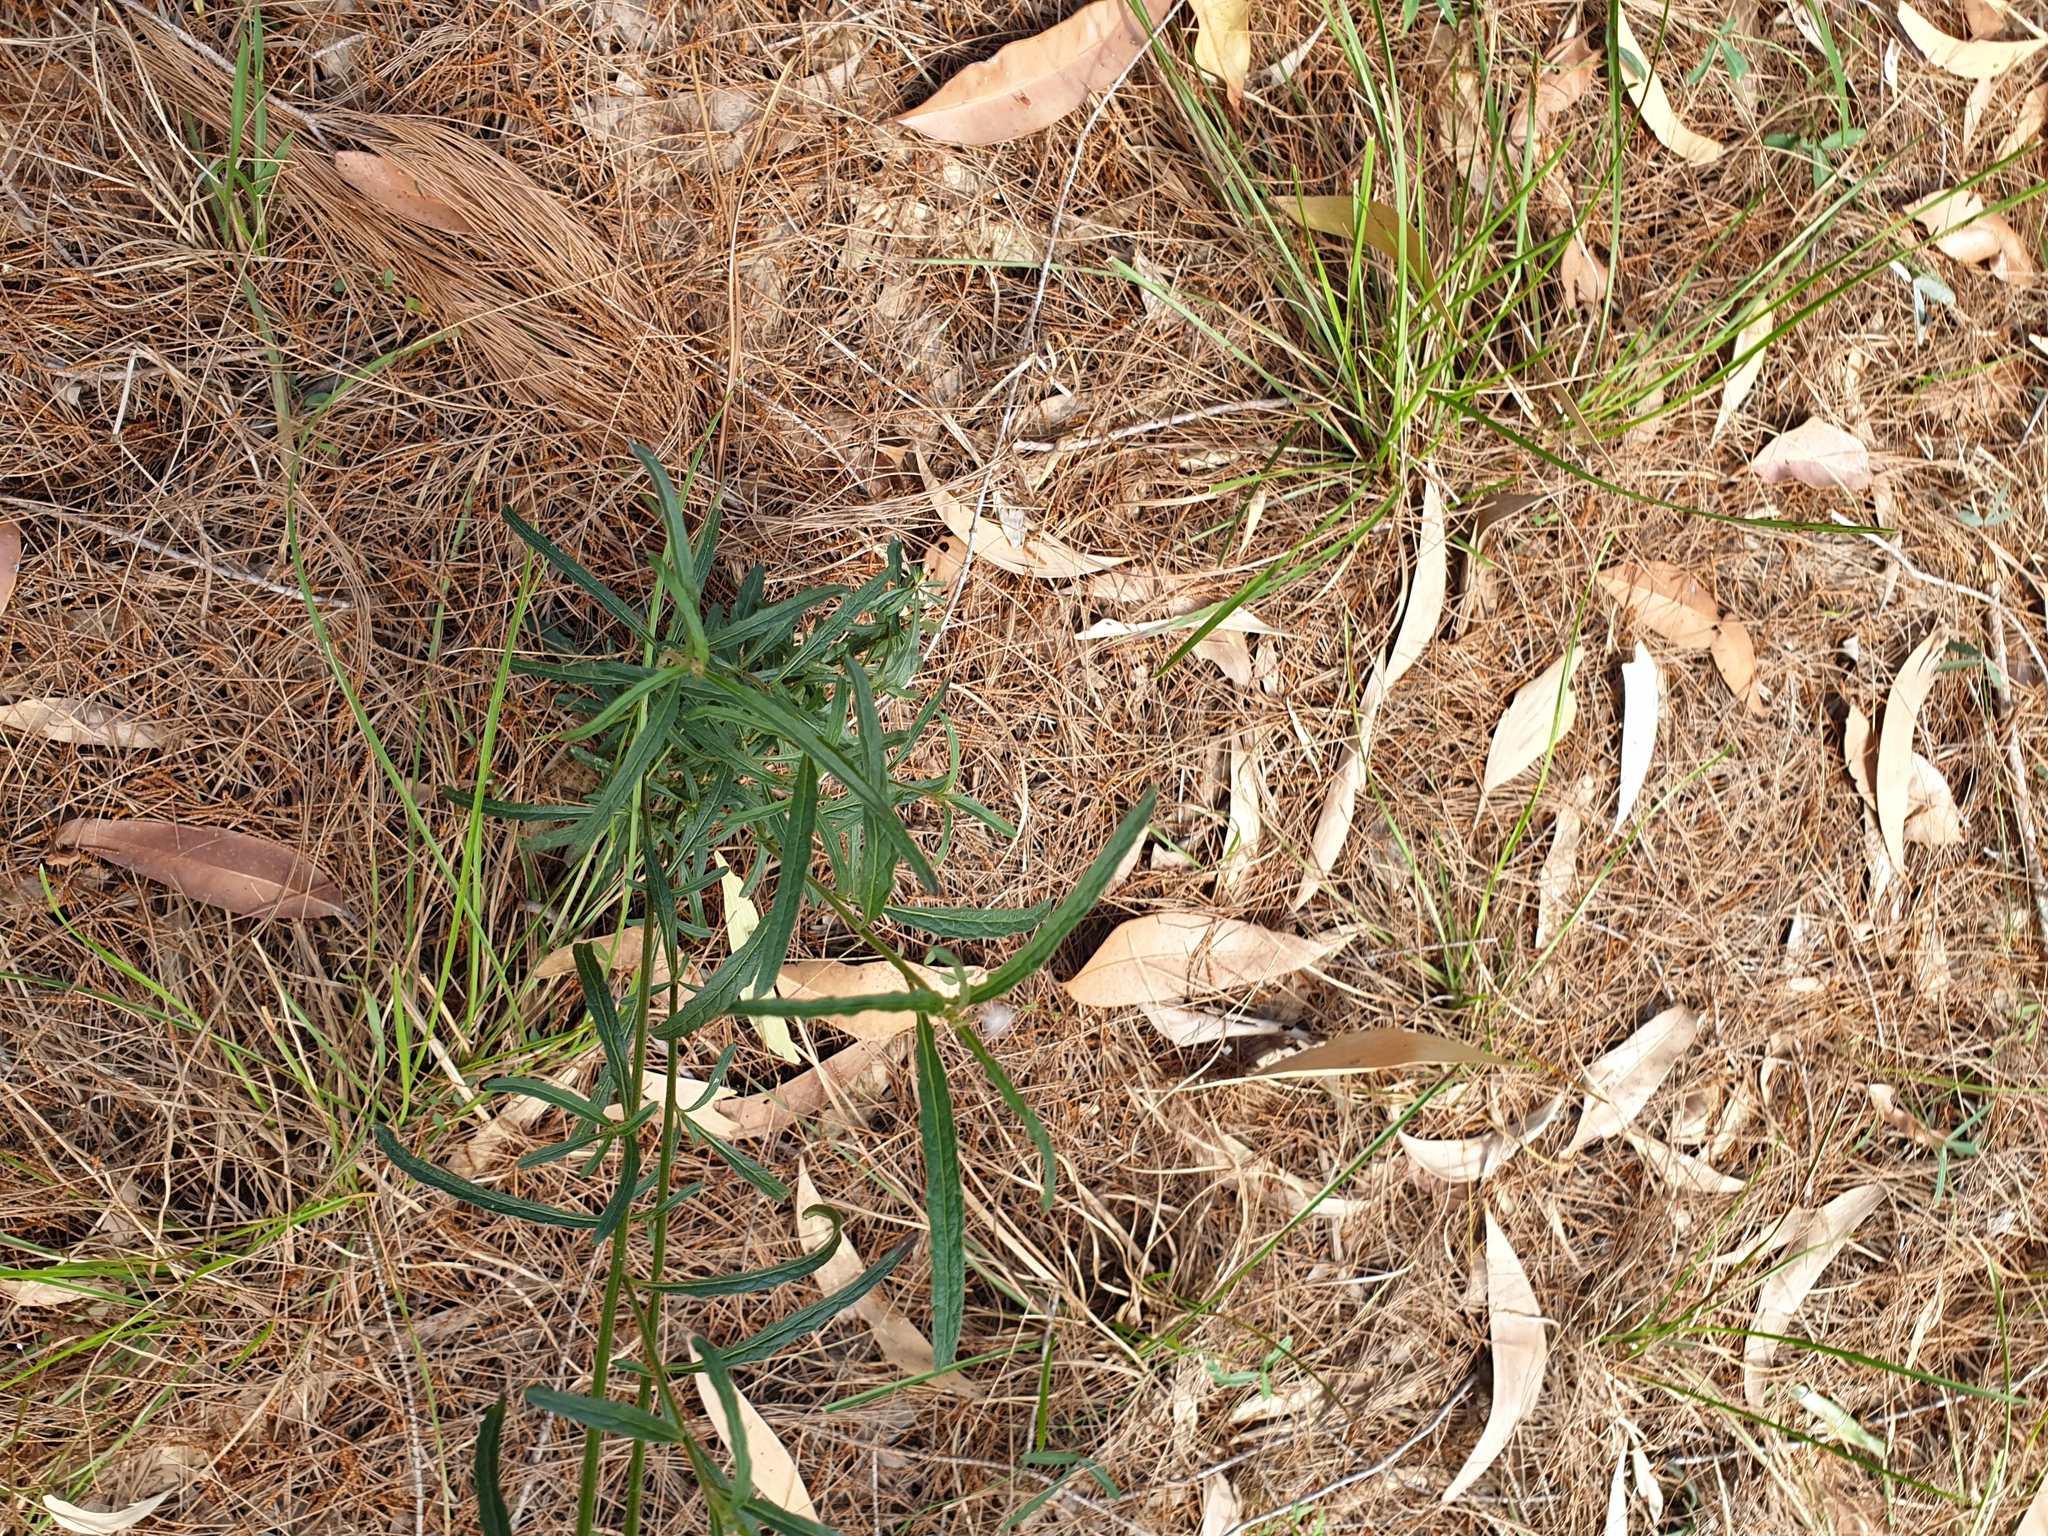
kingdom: Plantae
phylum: Tracheophyta
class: Magnoliopsida
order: Asterales
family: Asteraceae
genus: Cyanthillium
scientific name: Cyanthillium cinereum
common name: Little ironweed
